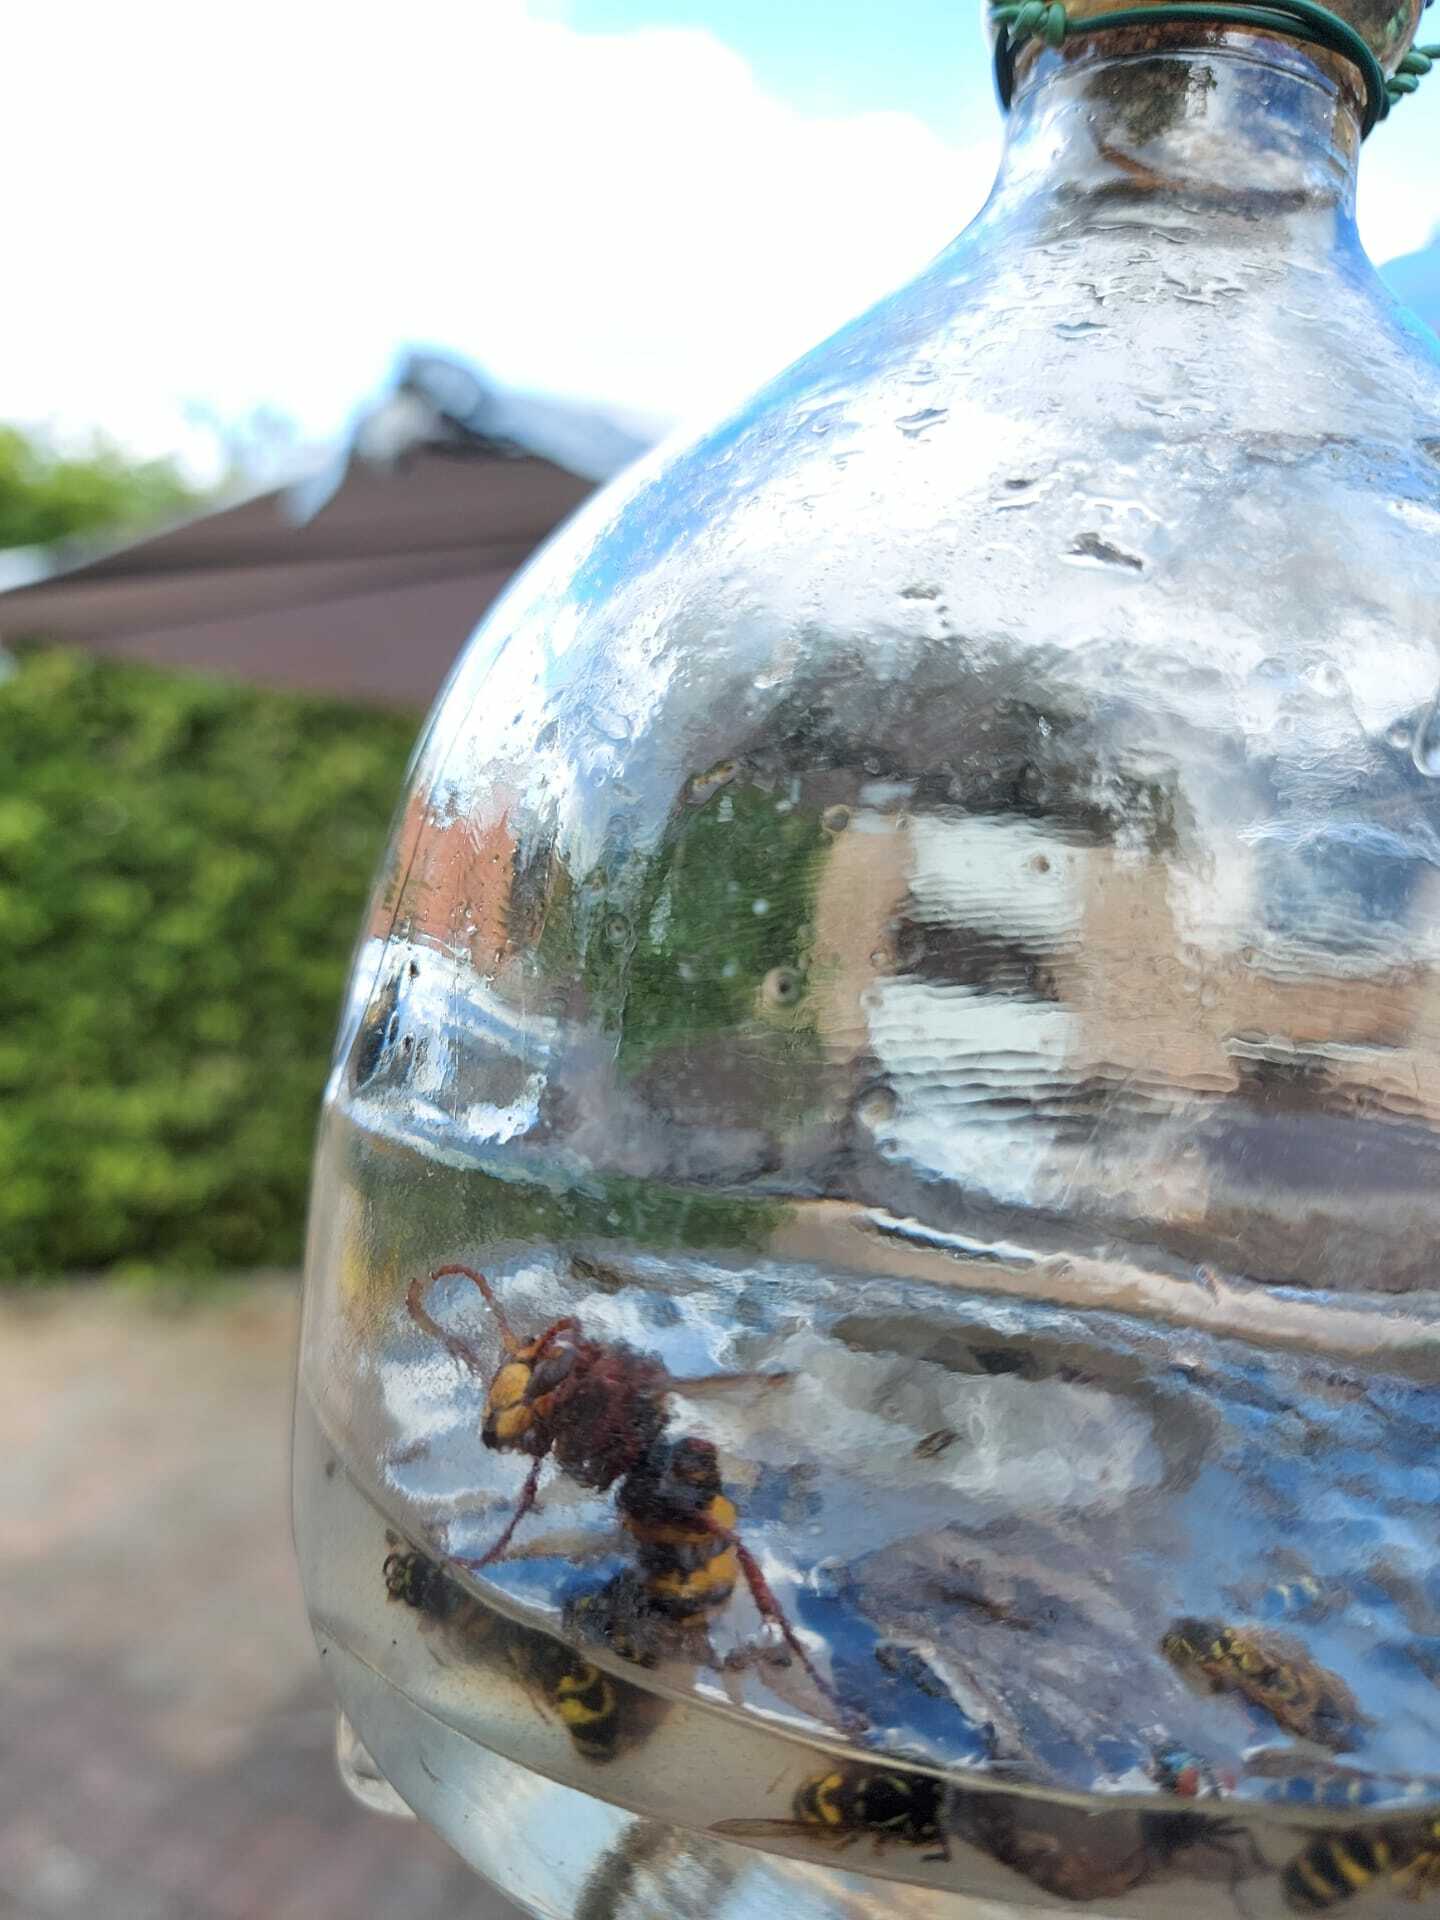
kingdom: Animalia
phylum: Arthropoda
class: Insecta
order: Hymenoptera
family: Vespidae
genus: Vespa
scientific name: Vespa crabro
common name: Hornet
